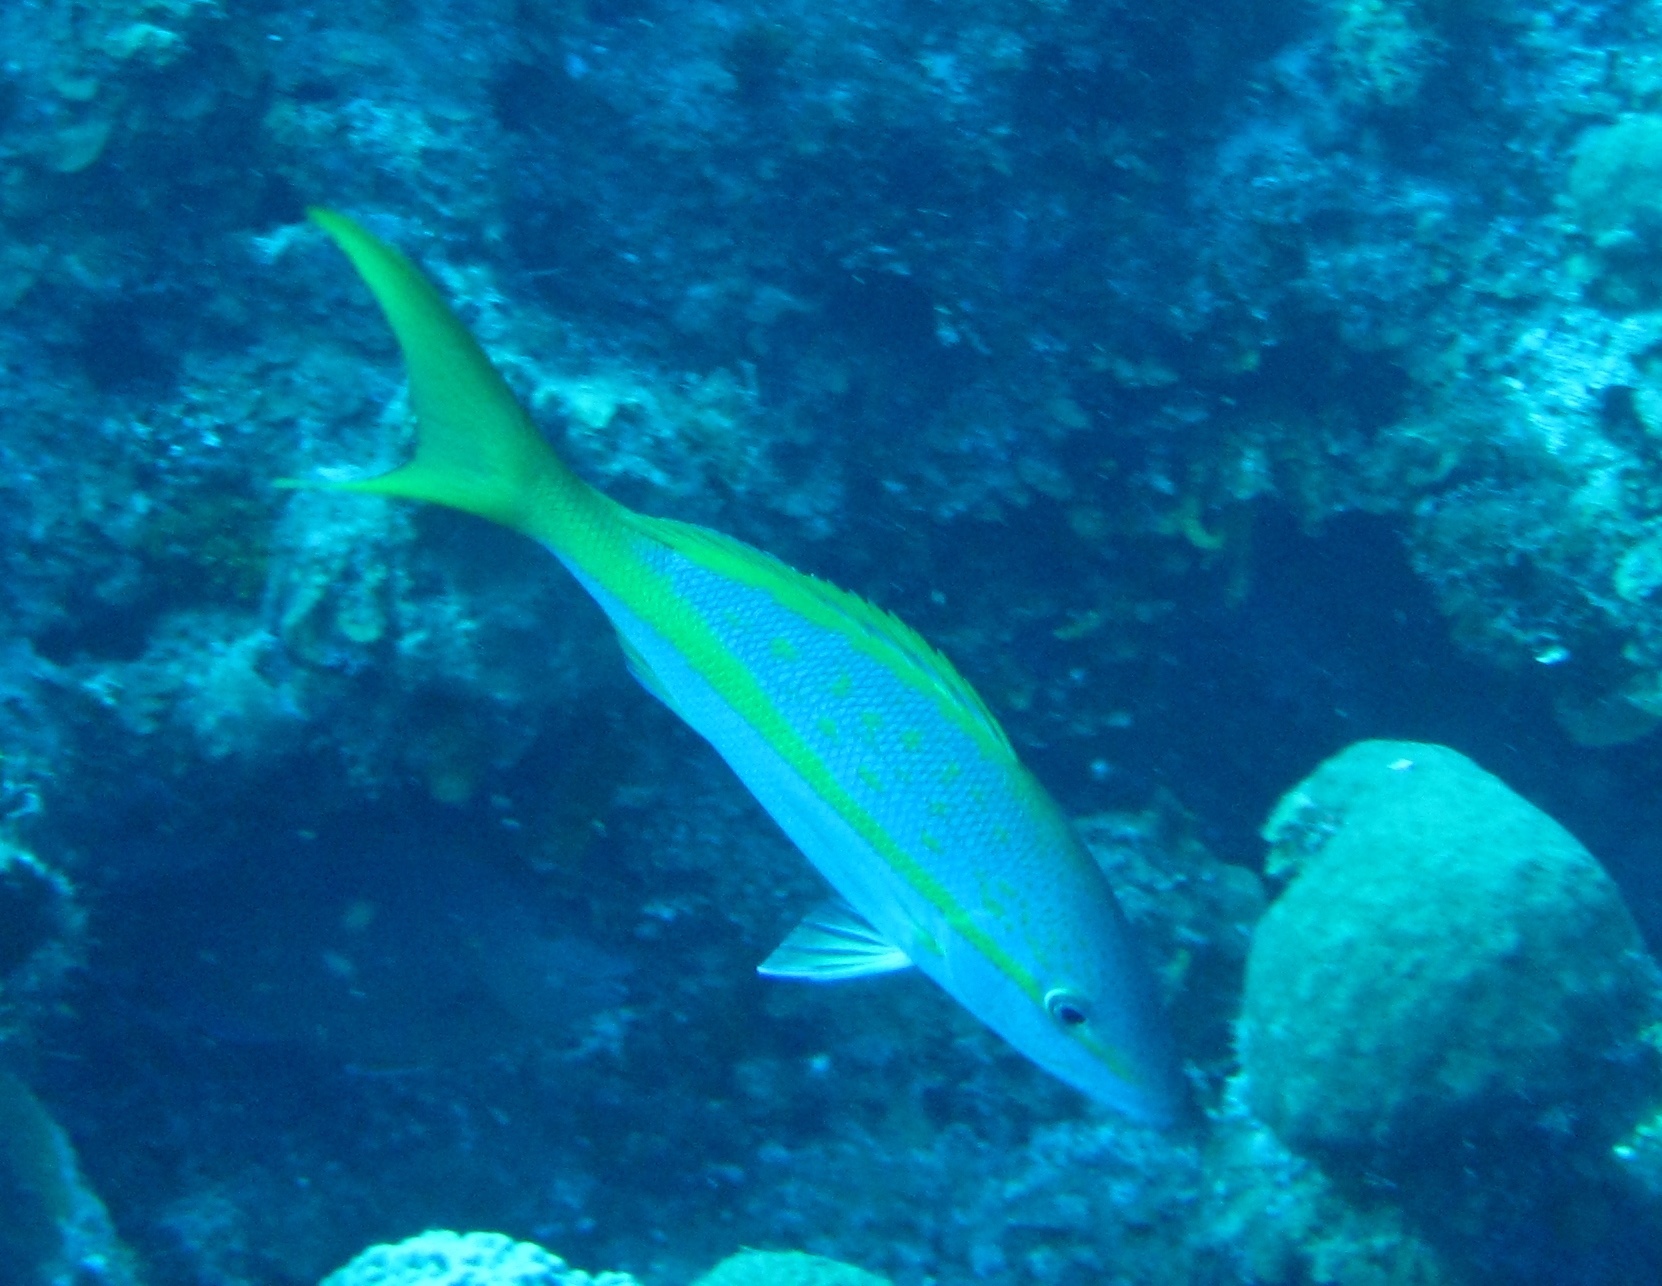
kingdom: Animalia
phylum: Chordata
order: Perciformes
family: Lutjanidae
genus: Ocyurus
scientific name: Ocyurus chrysurus
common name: Yellowtail snapper
